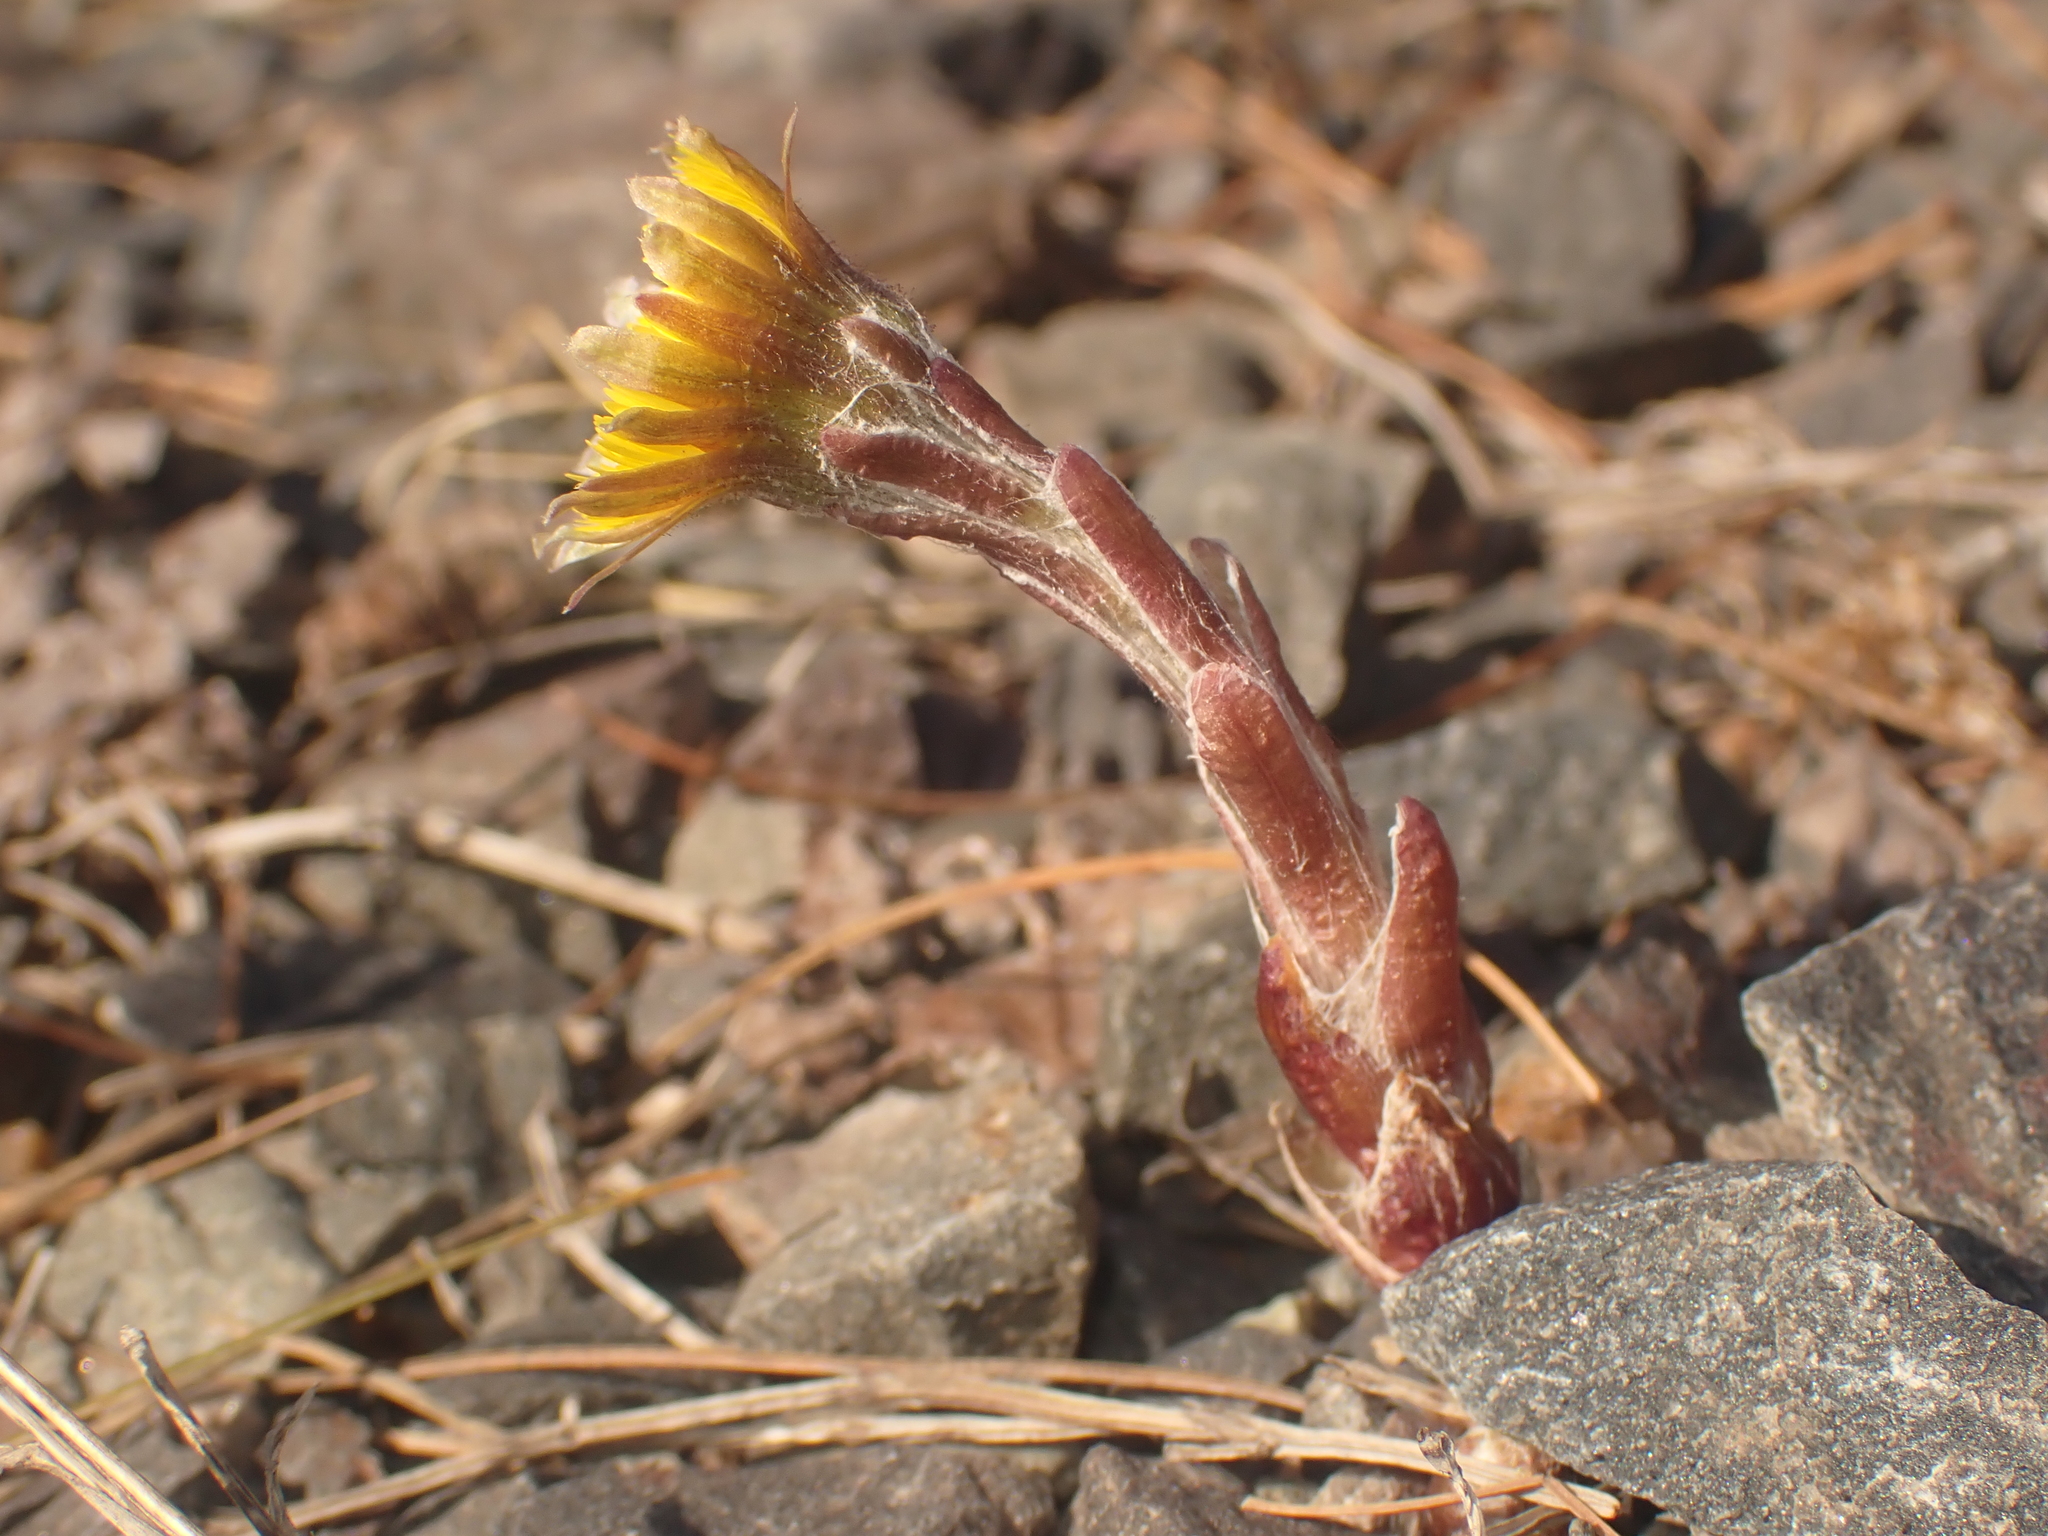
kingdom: Plantae
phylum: Tracheophyta
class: Magnoliopsida
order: Asterales
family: Asteraceae
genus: Tussilago
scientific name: Tussilago farfara
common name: Coltsfoot
